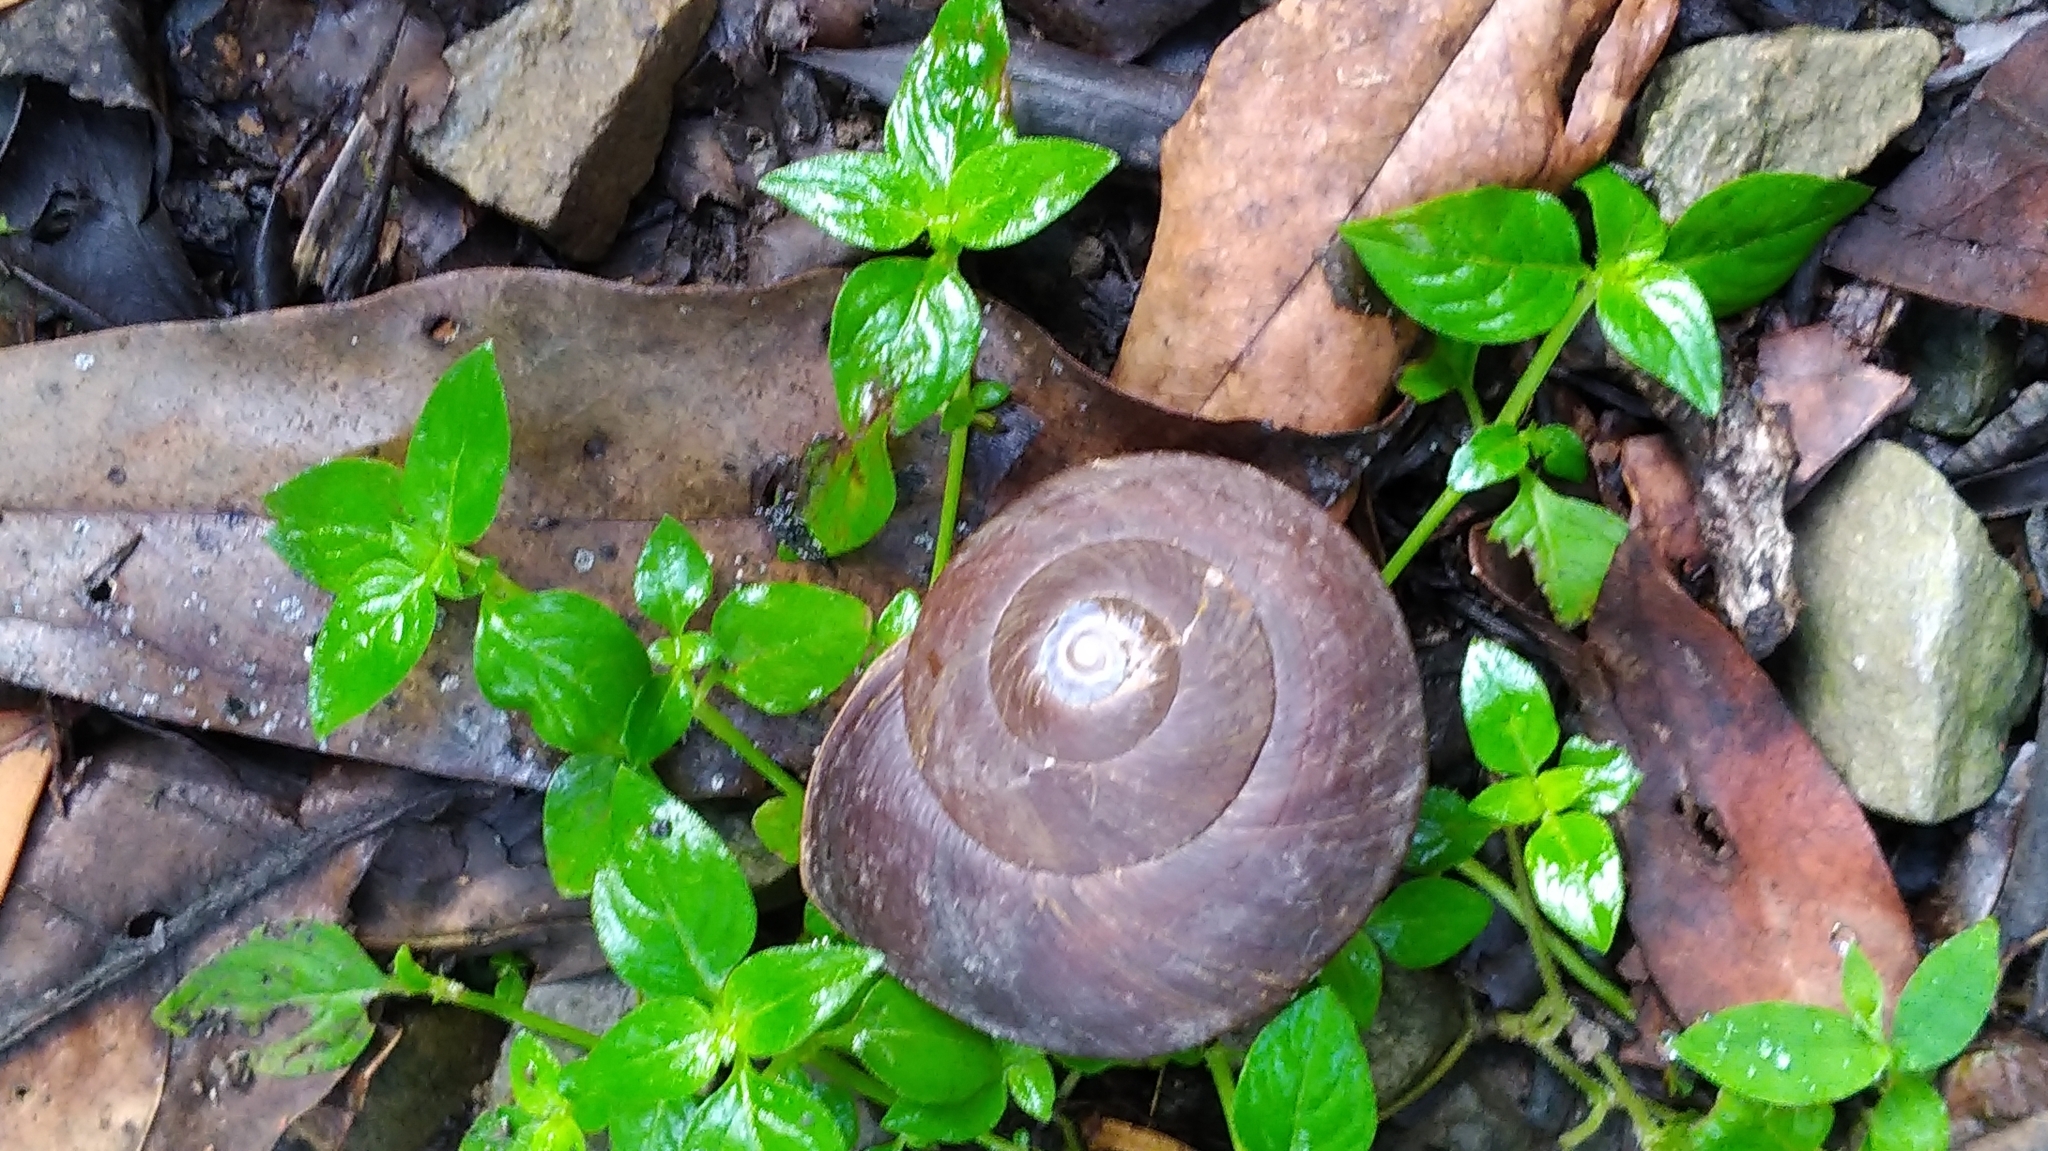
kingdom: Animalia
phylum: Mollusca
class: Gastropoda
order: Stylommatophora
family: Camaenidae
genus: Nesiohelix
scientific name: Nesiohelix swinhoei
